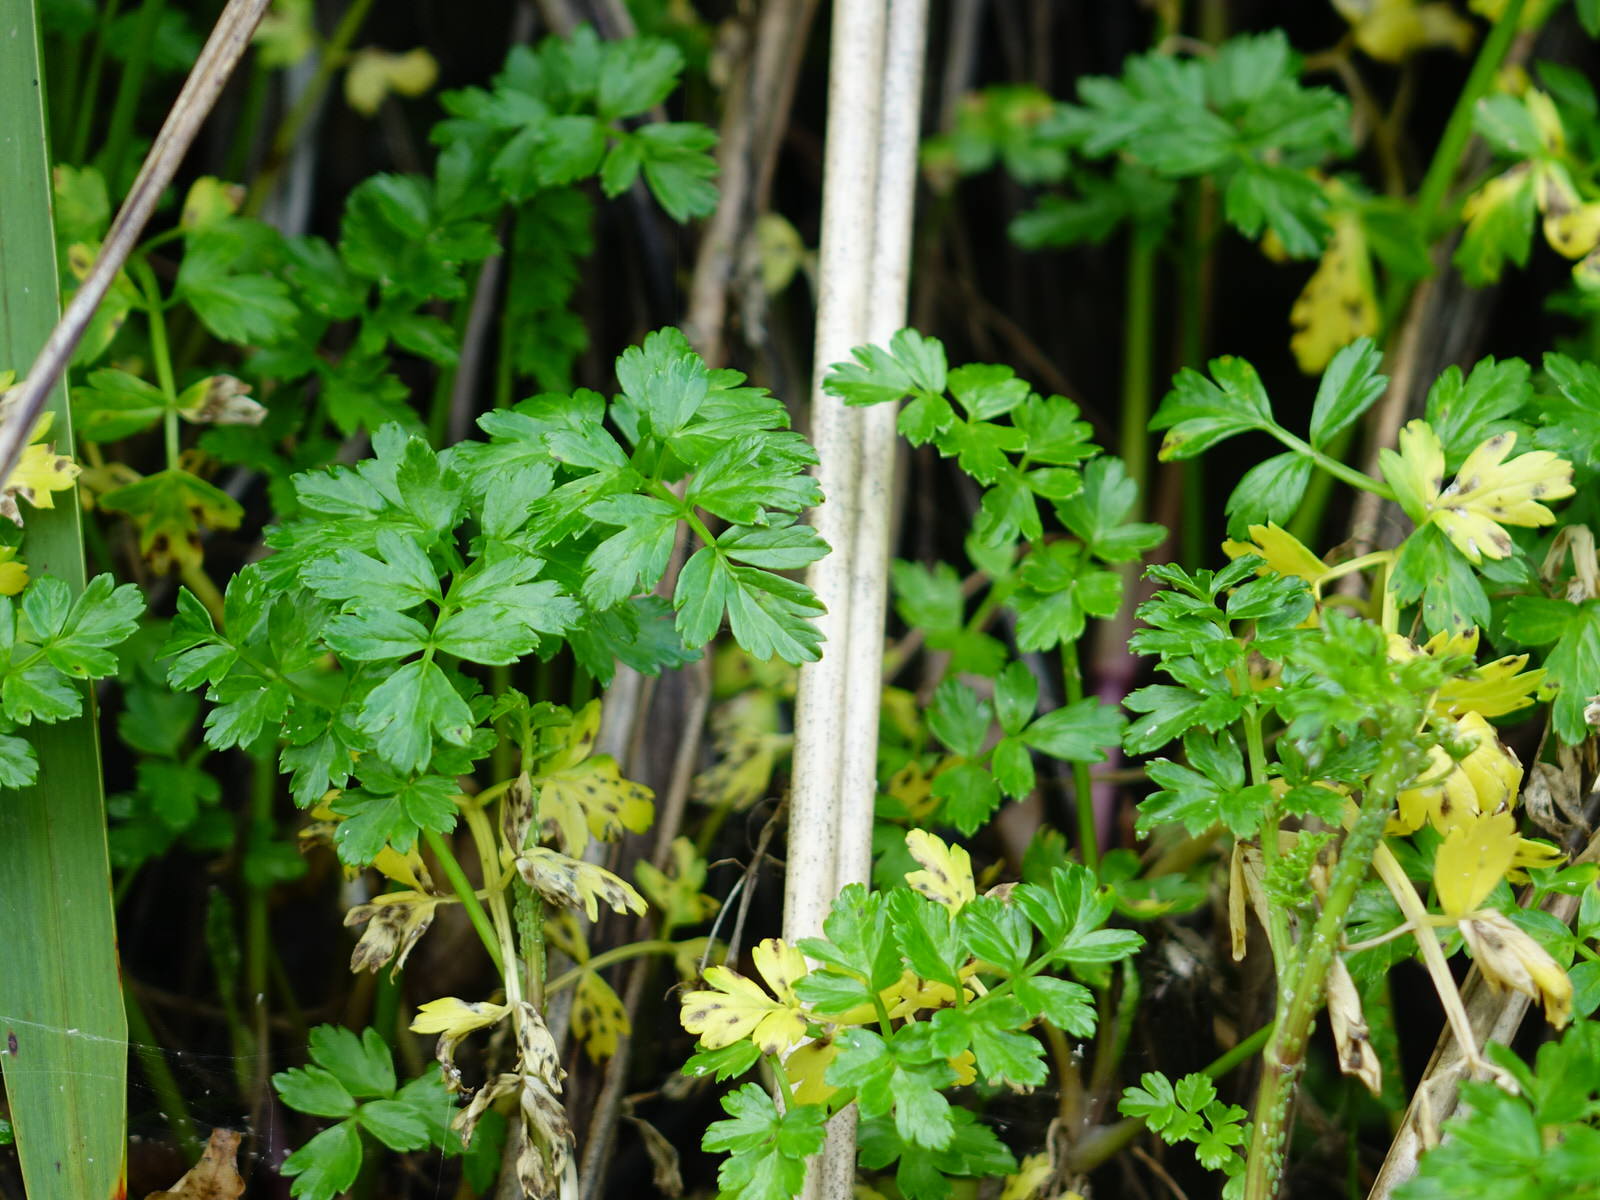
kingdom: Plantae
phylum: Tracheophyta
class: Magnoliopsida
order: Apiales
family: Apiaceae
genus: Apium
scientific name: Apium prostratum
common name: Prostrate marshwort
